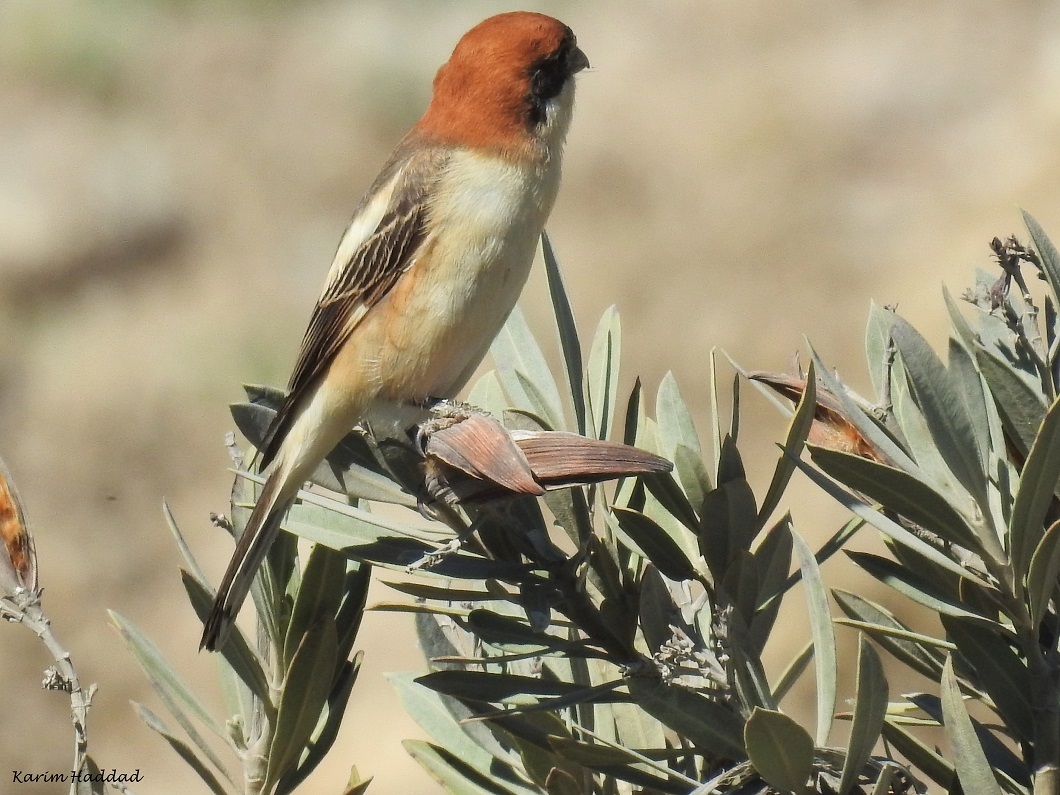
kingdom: Animalia
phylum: Chordata
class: Aves
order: Passeriformes
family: Laniidae
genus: Lanius
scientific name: Lanius senator
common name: Woodchat shrike
